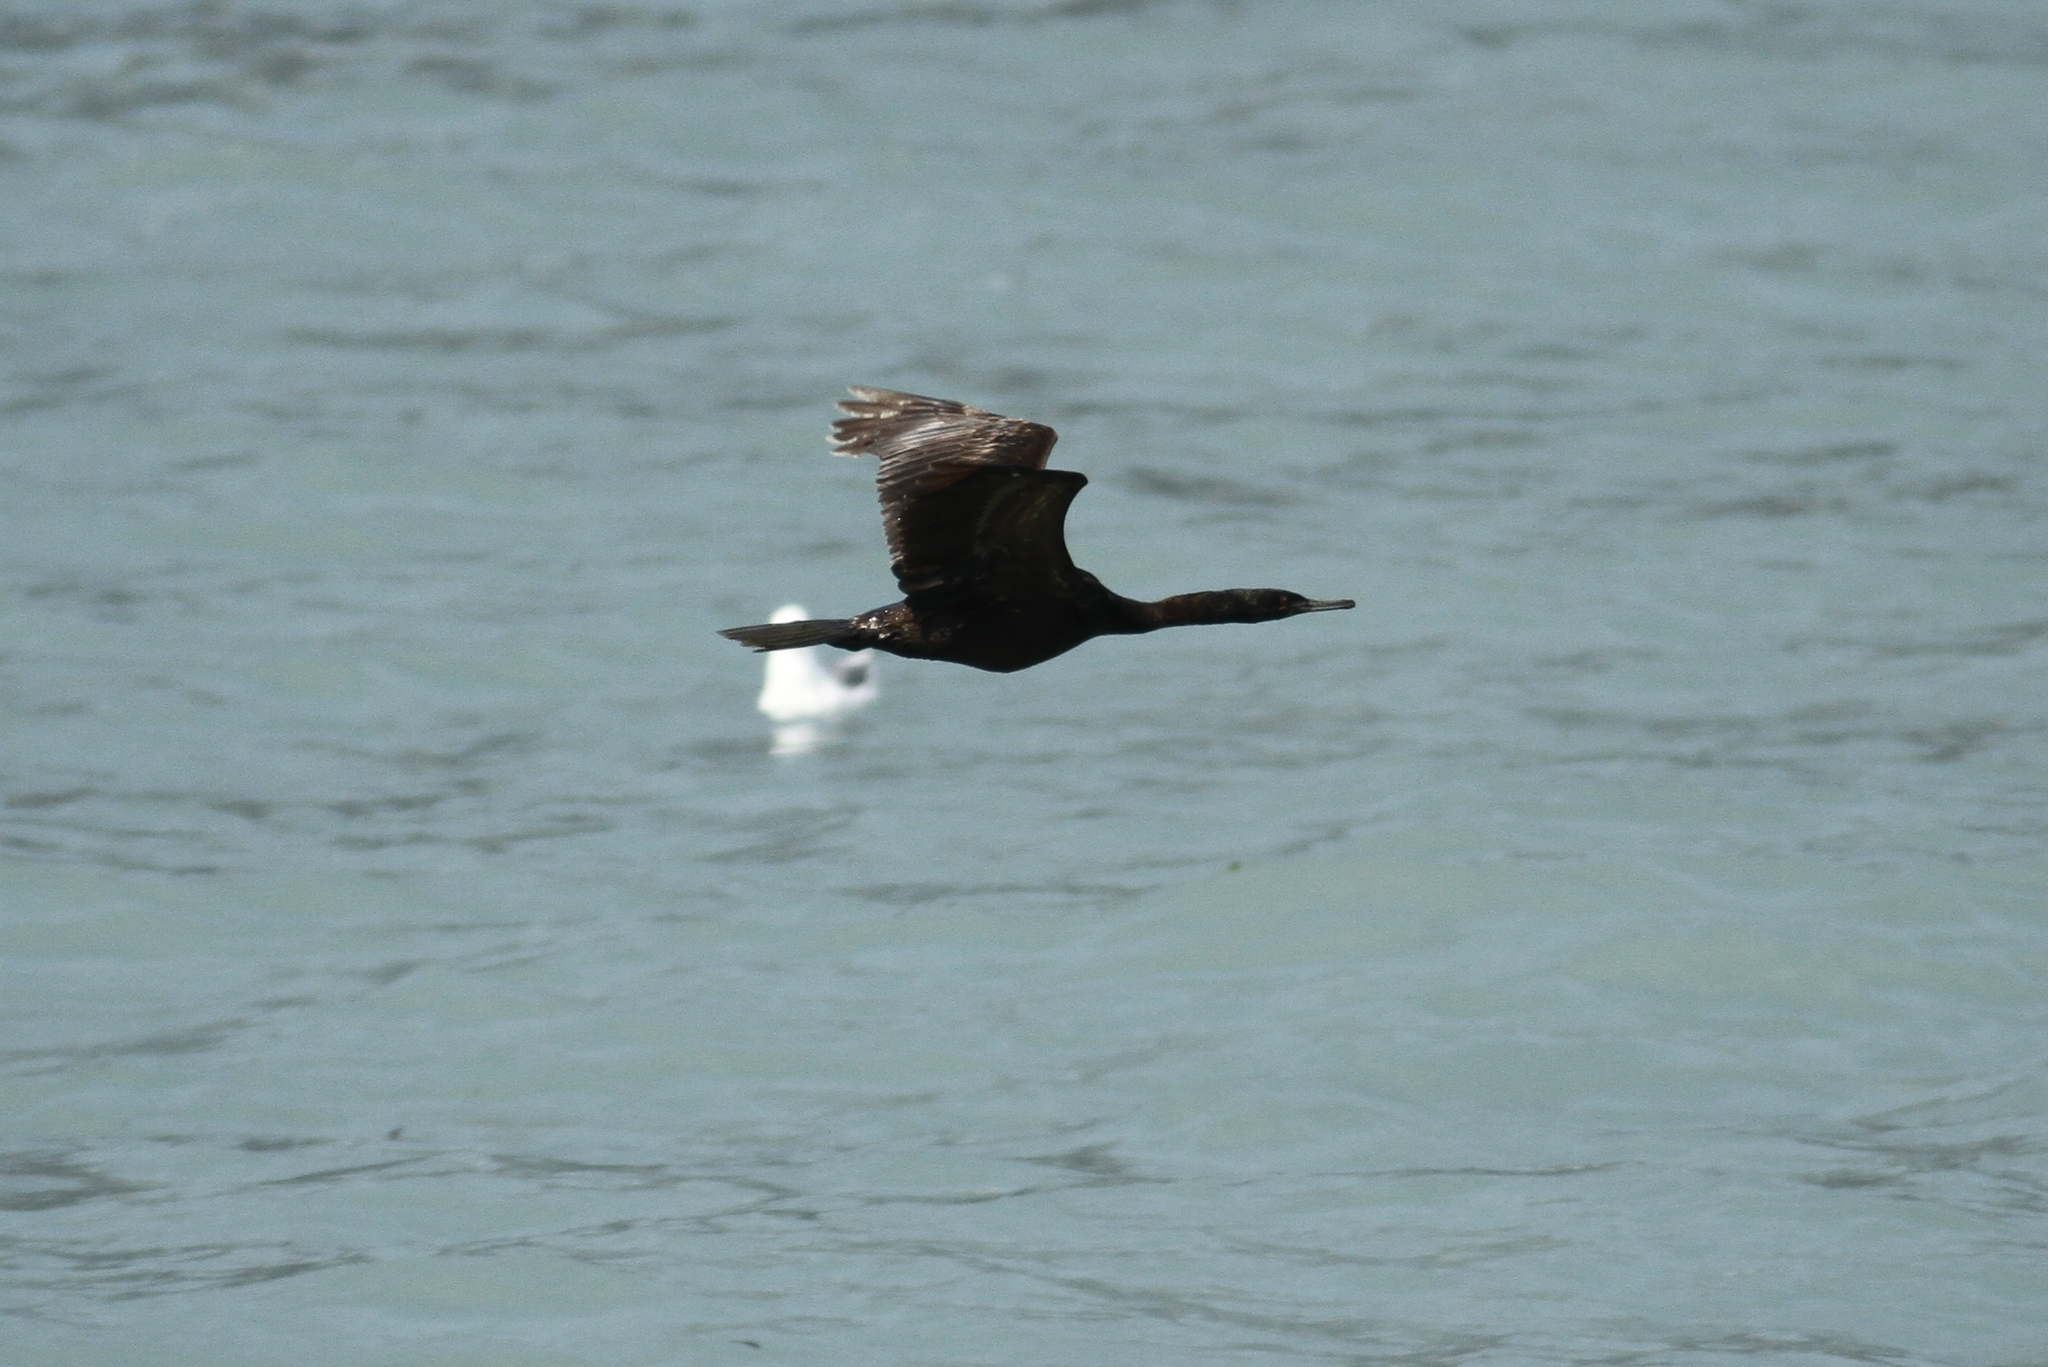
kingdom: Animalia
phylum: Chordata
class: Aves
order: Suliformes
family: Phalacrocoracidae
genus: Phalacrocorax
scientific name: Phalacrocorax pelagicus
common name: Pelagic cormorant
